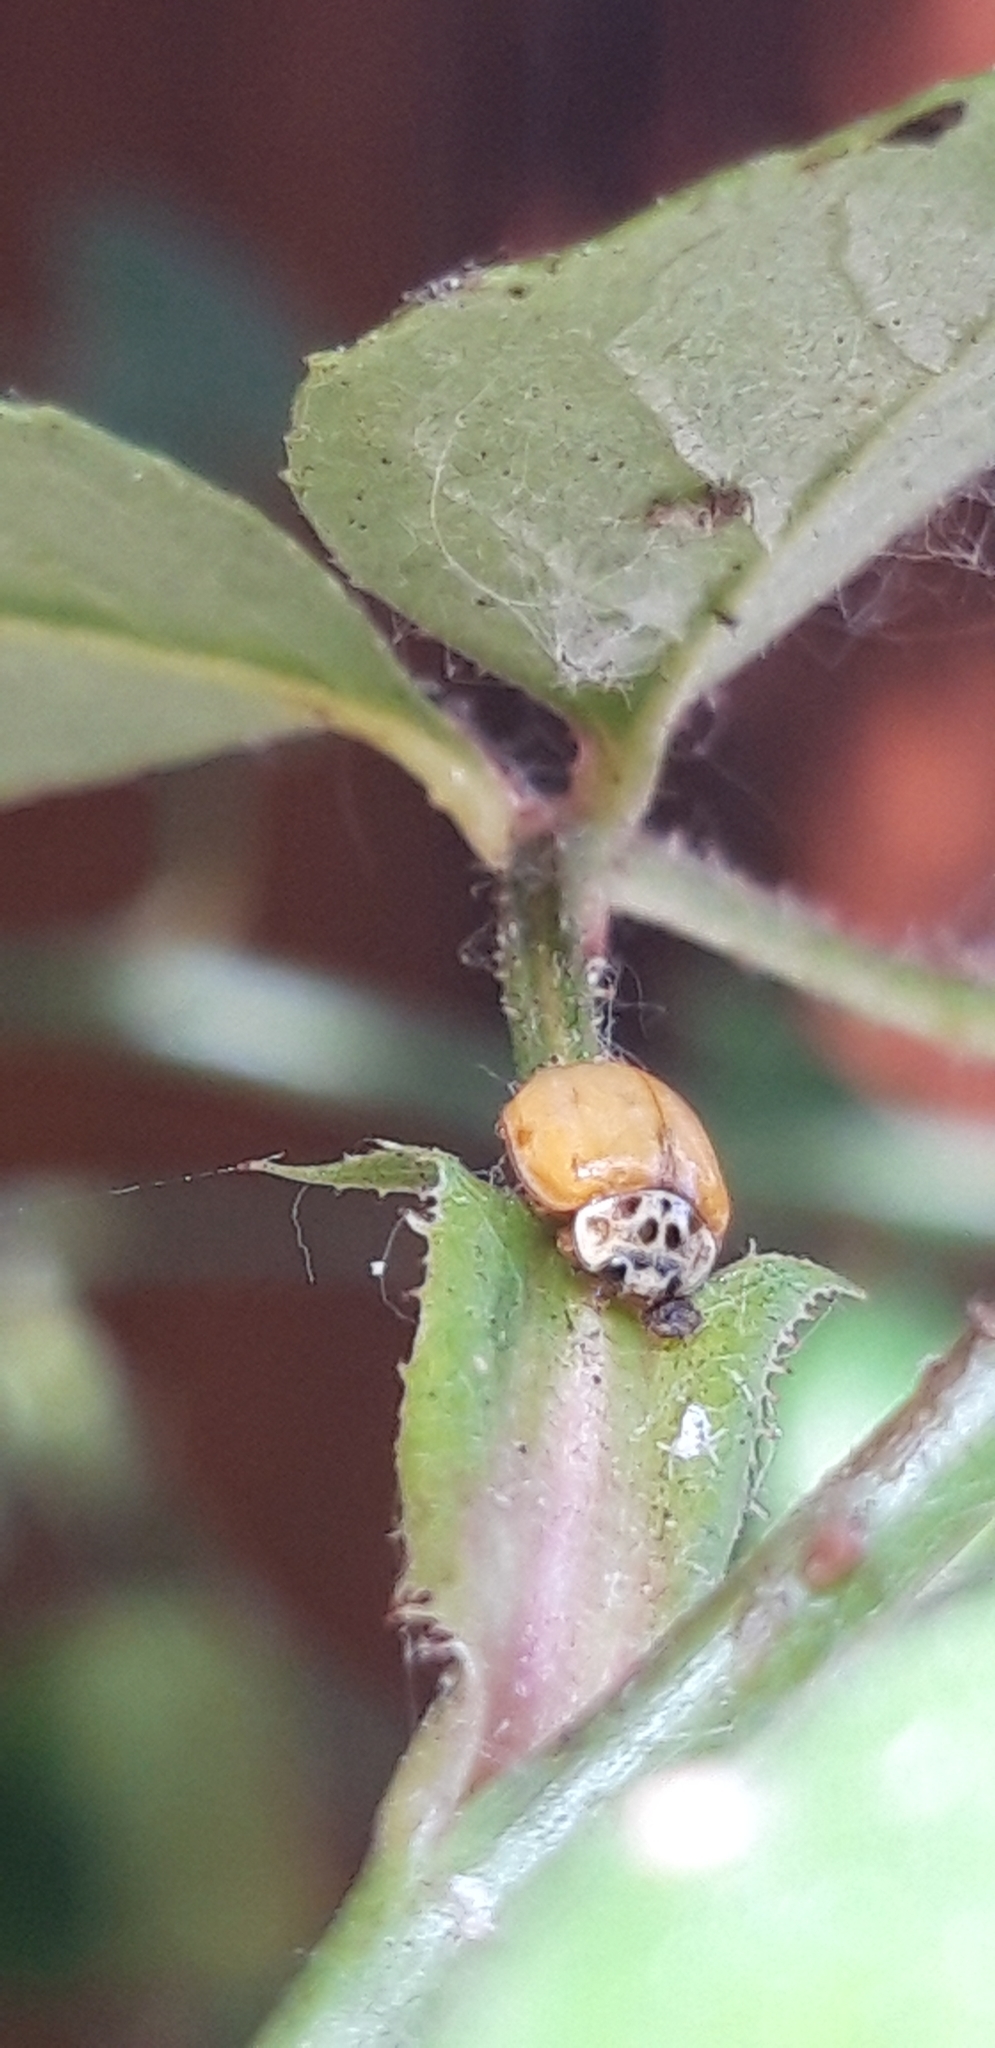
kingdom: Animalia
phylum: Arthropoda
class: Insecta
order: Coleoptera
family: Coccinellidae
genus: Adalia
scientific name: Adalia decempunctata
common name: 10-spot ladybird
